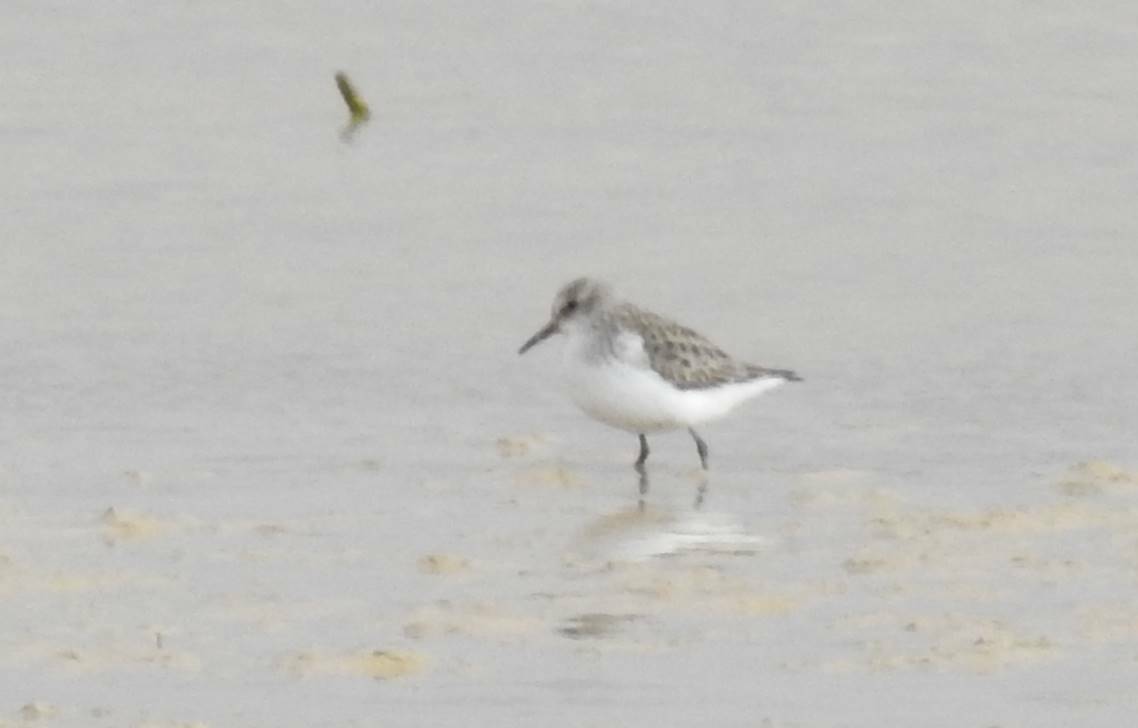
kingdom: Animalia
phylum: Chordata
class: Aves
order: Charadriiformes
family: Scolopacidae
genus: Calidris
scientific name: Calidris minuta
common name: Little stint
